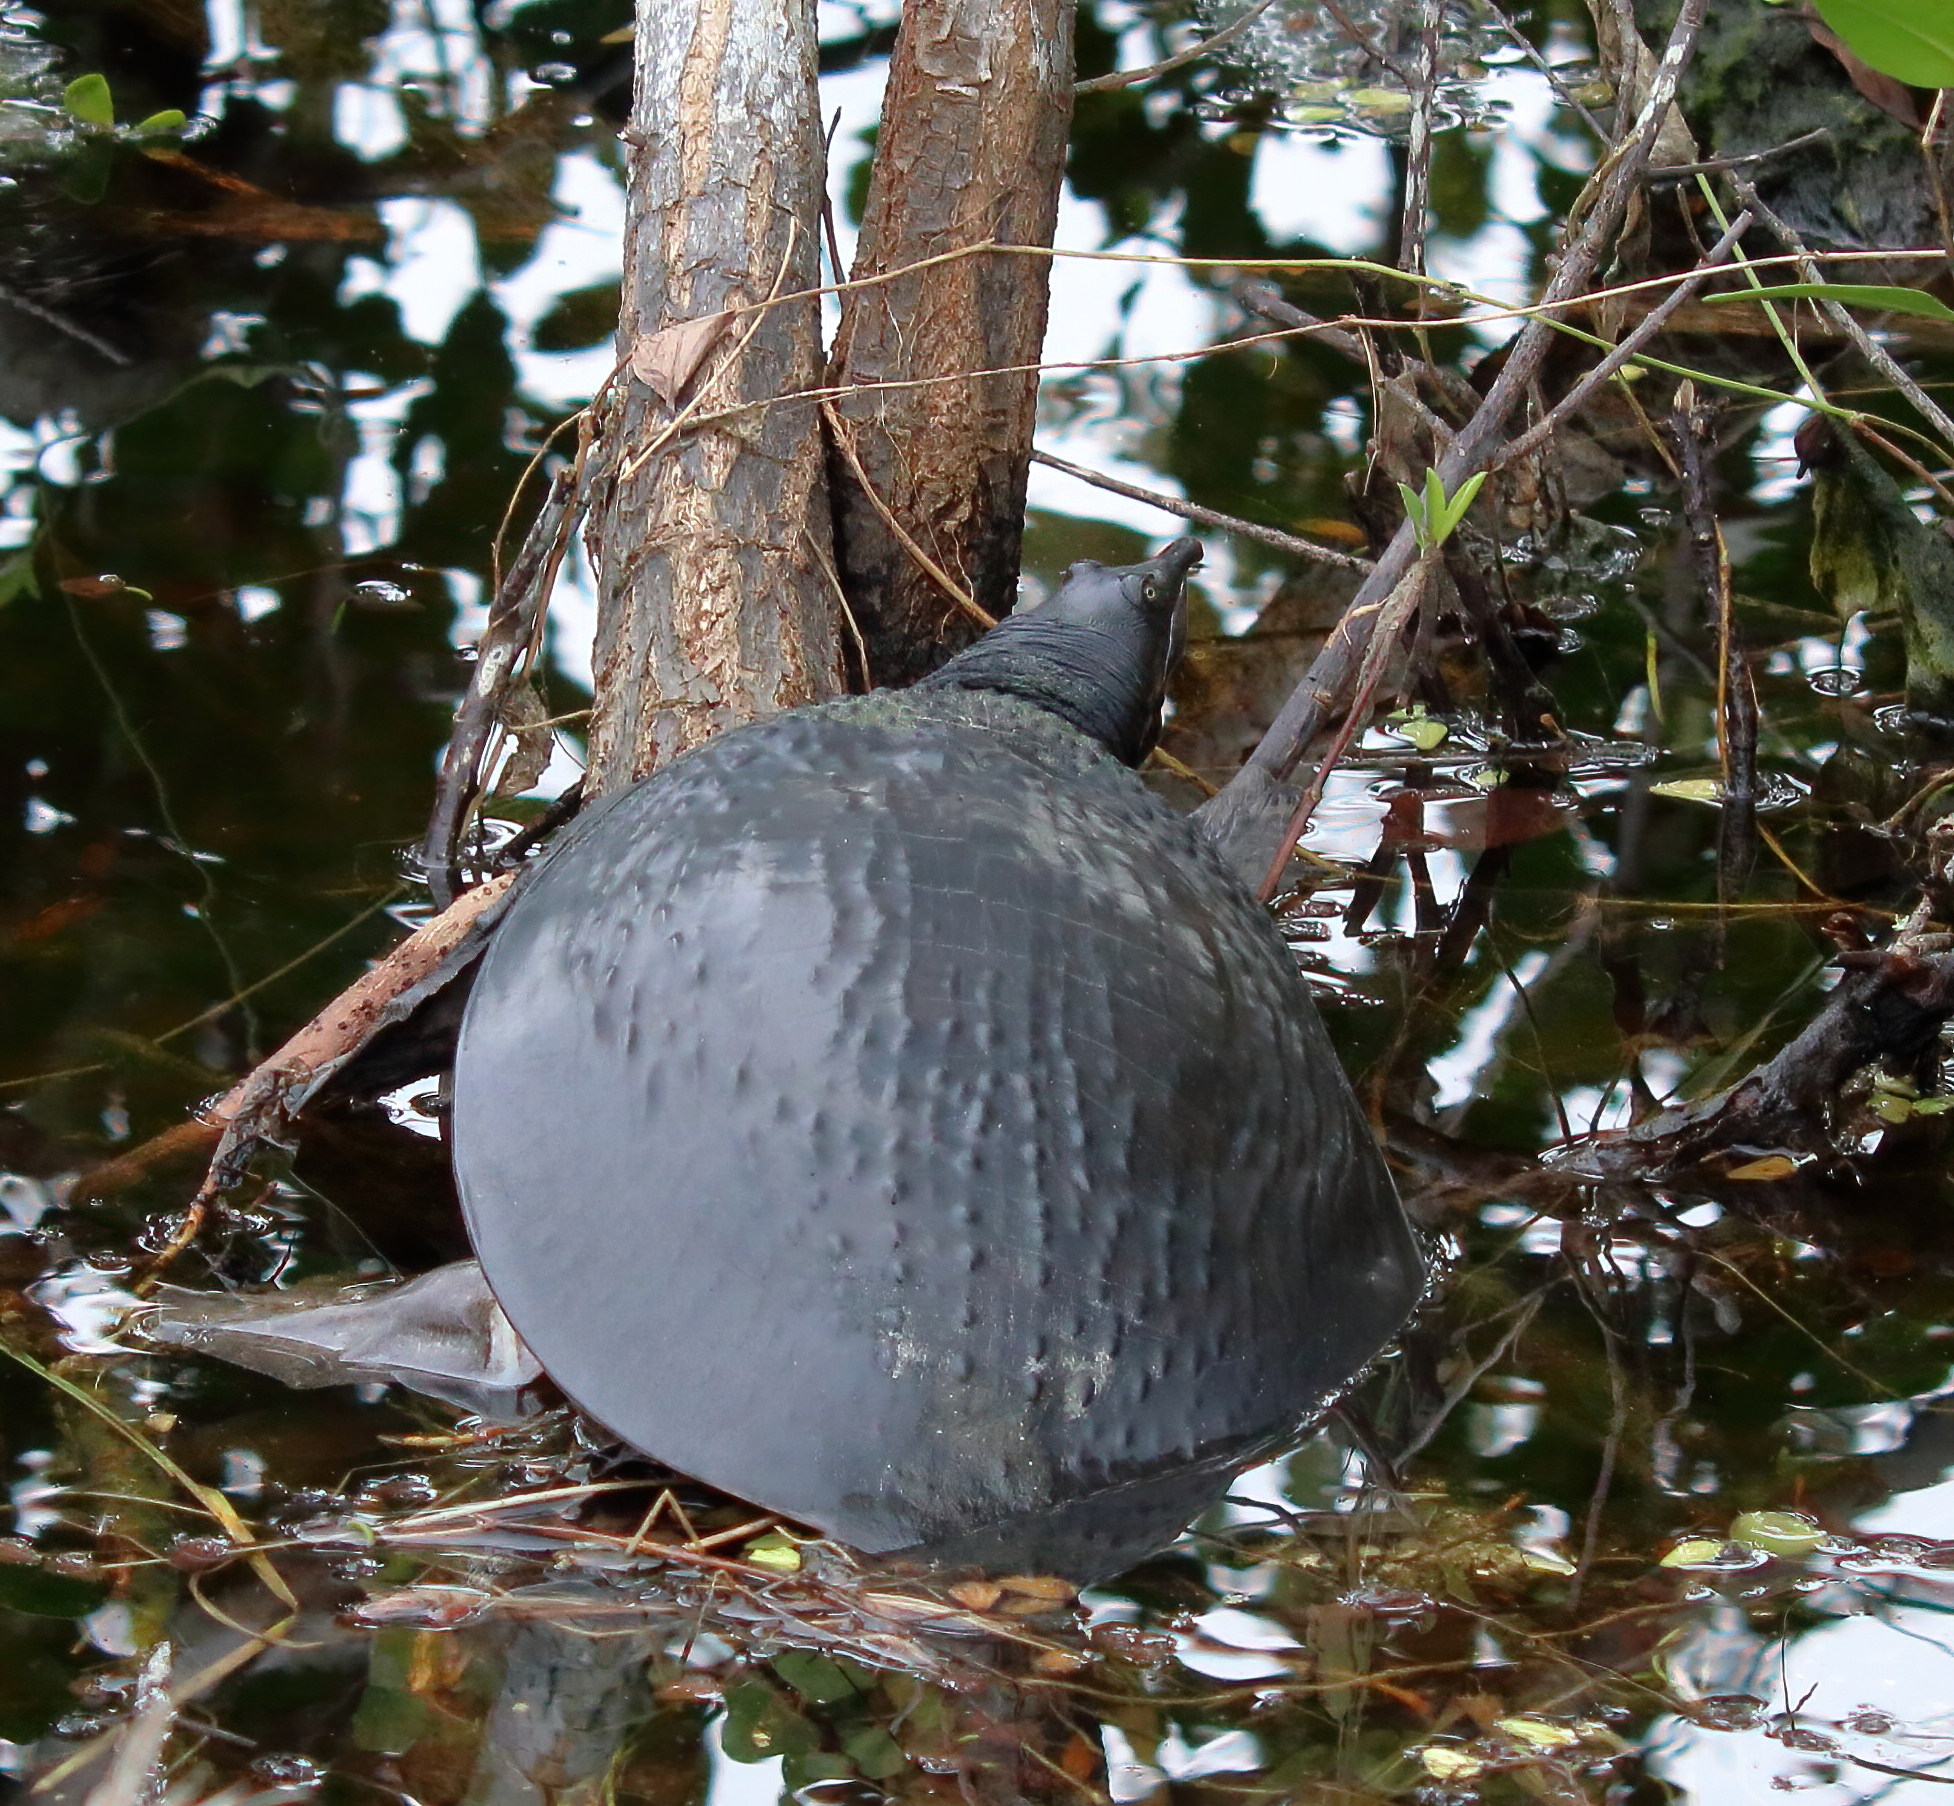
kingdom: Animalia
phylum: Chordata
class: Testudines
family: Trionychidae
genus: Apalone
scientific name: Apalone ferox
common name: Florida softshell turtle
